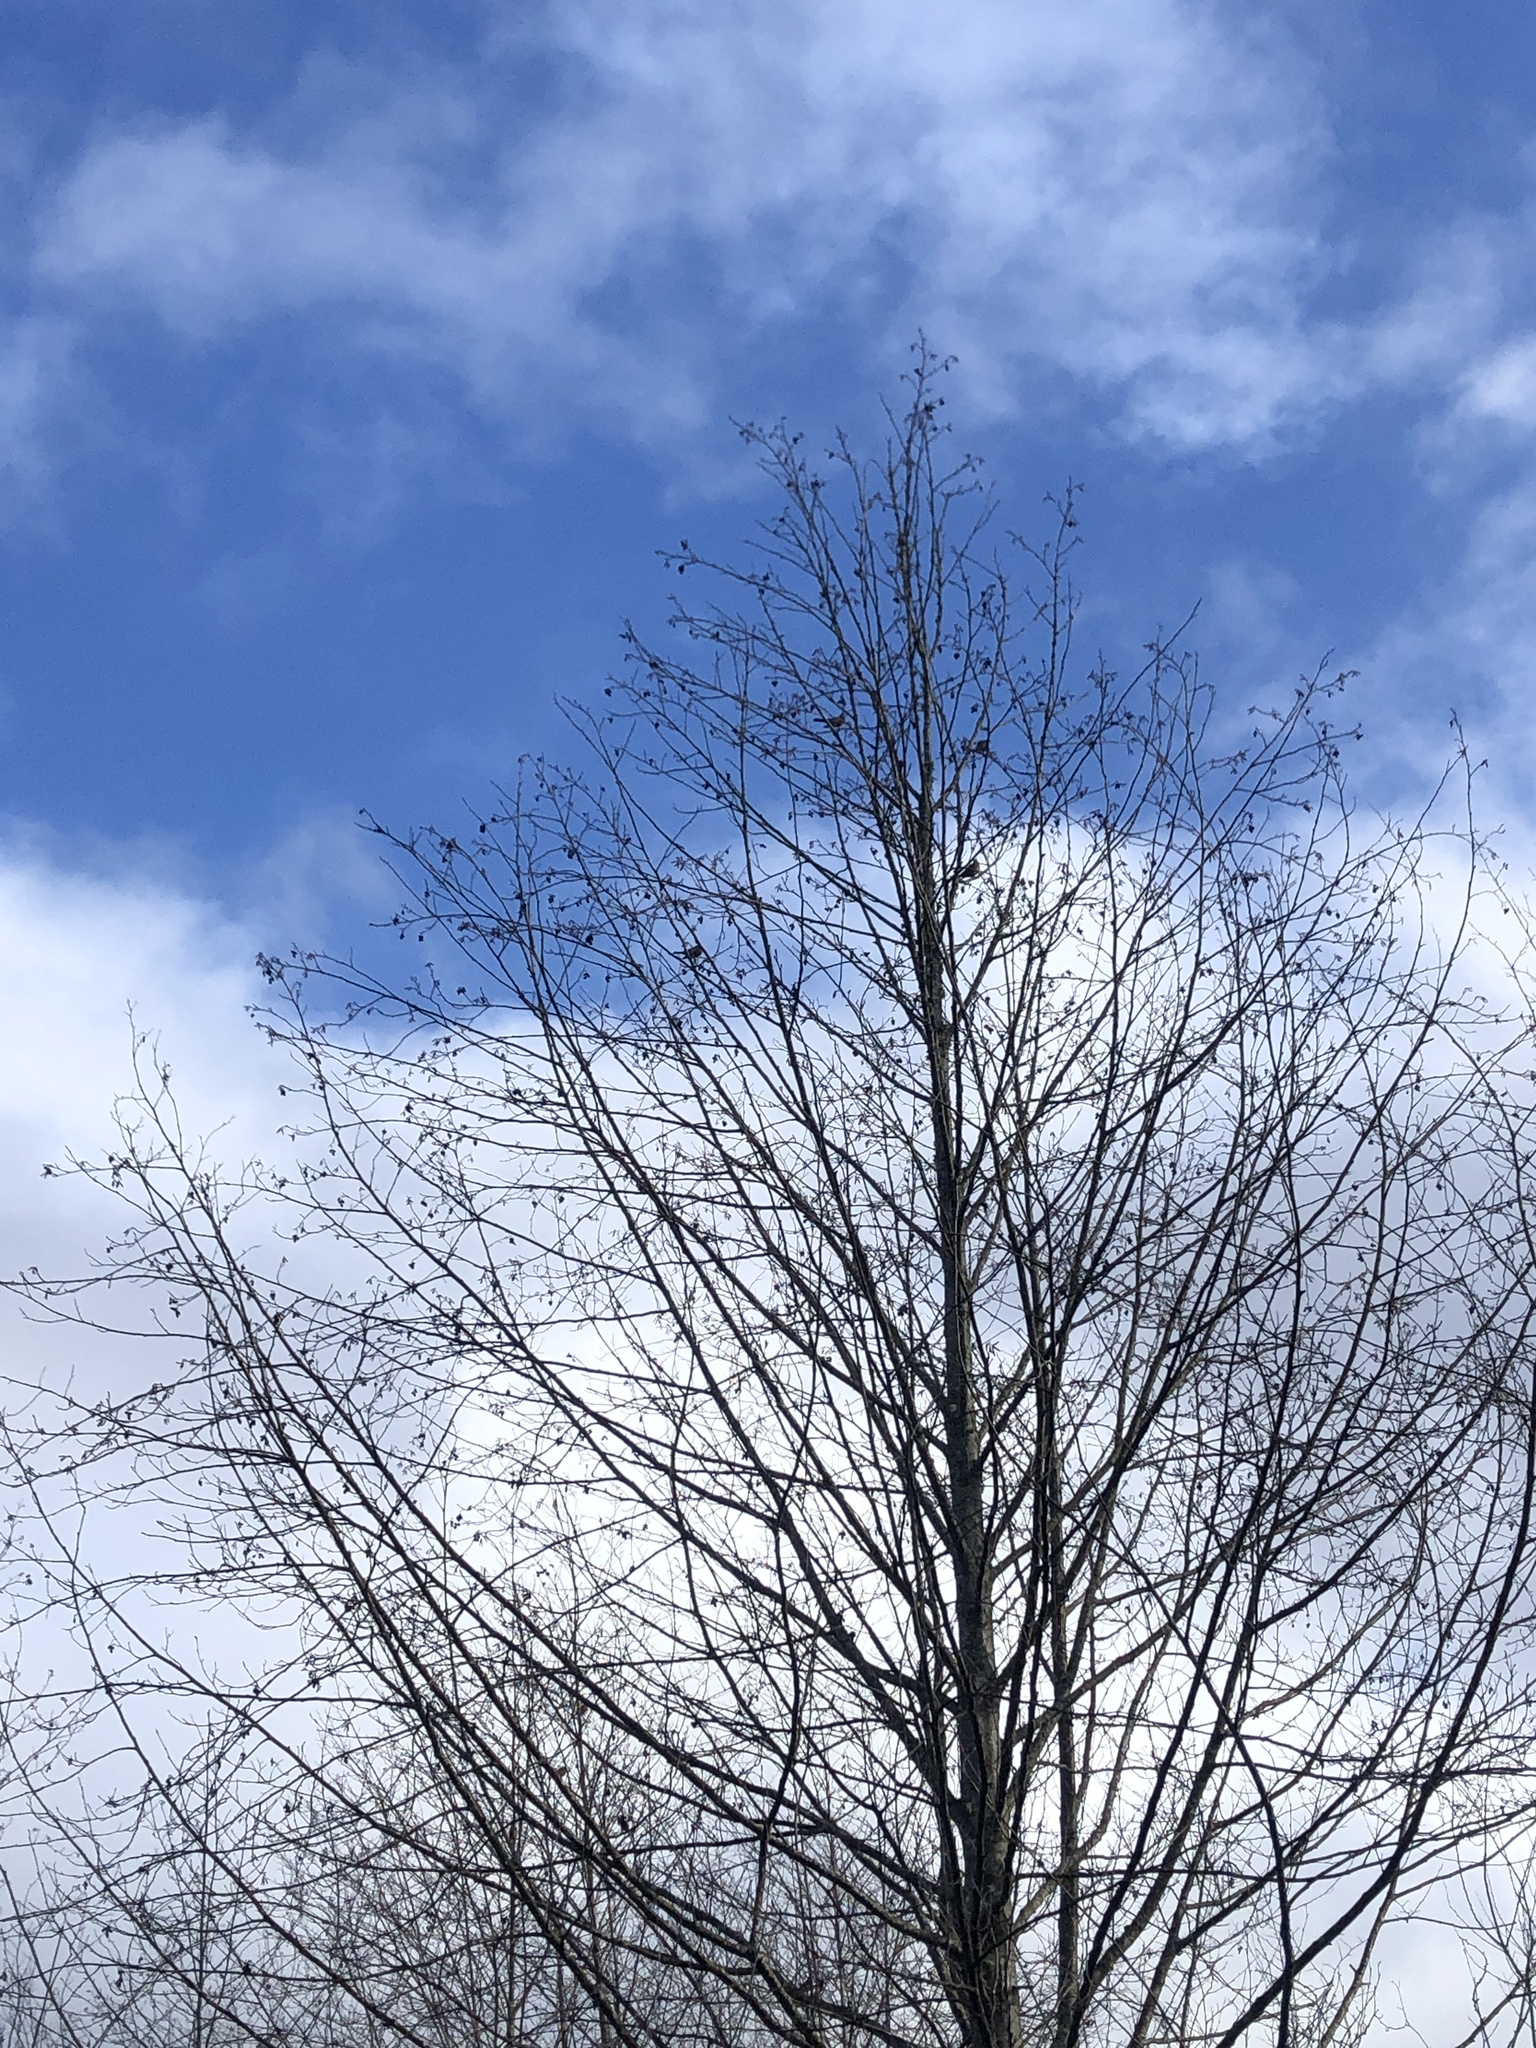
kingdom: Animalia
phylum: Chordata
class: Aves
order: Passeriformes
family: Turdidae
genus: Turdus
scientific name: Turdus migratorius
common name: American robin
